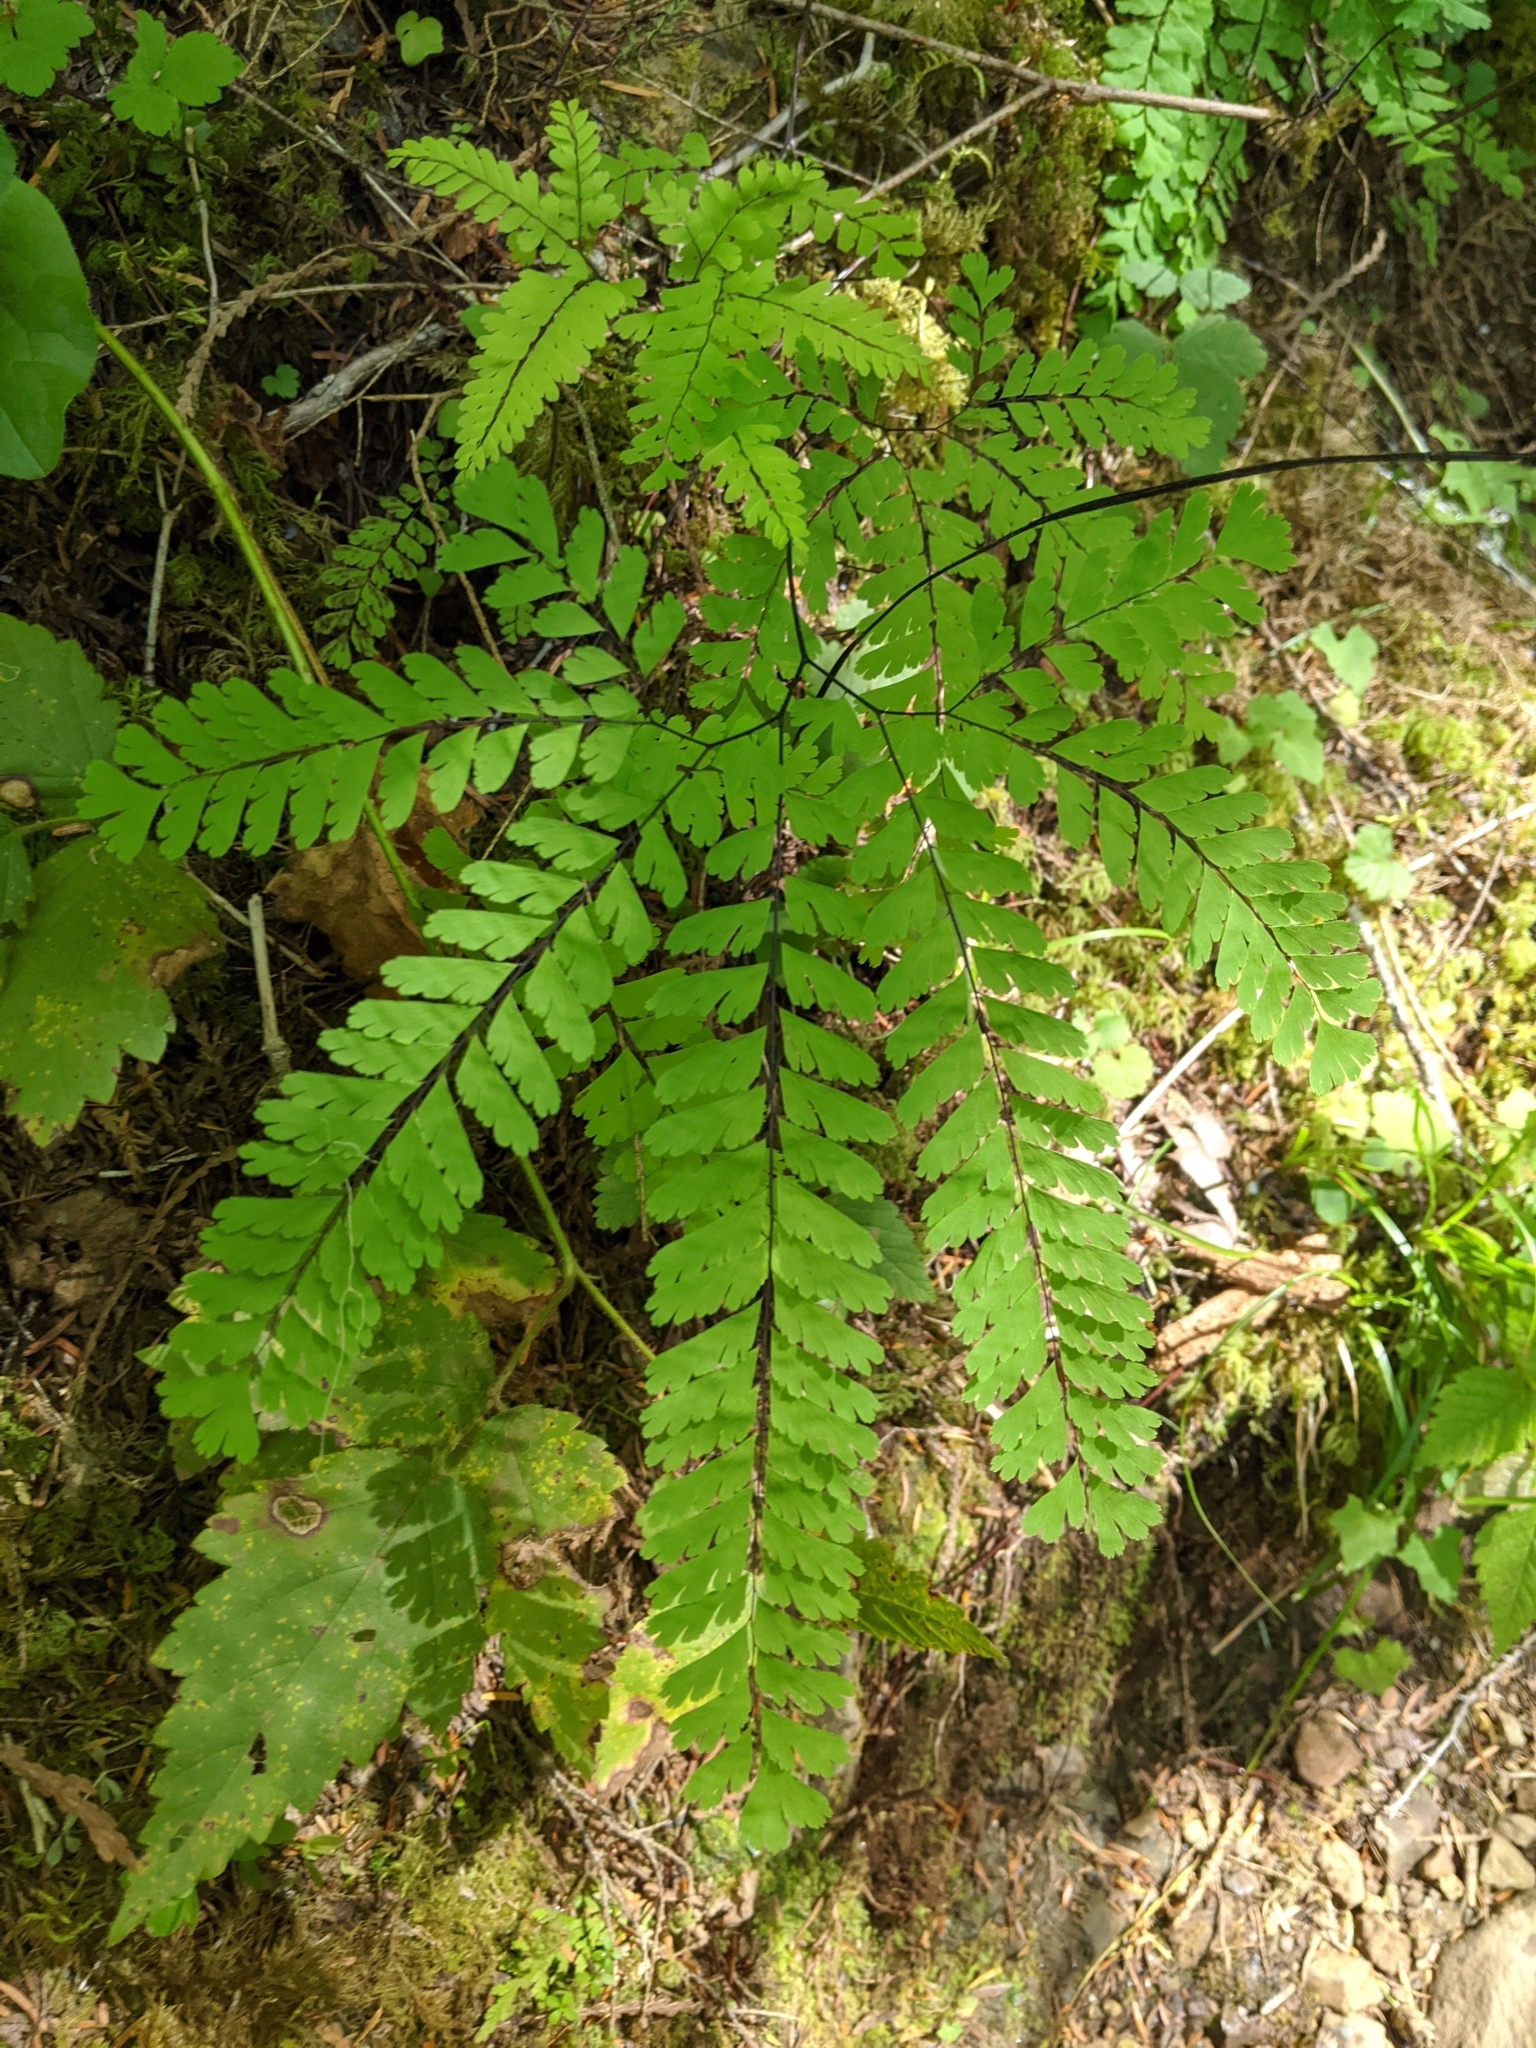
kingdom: Plantae
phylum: Tracheophyta
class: Polypodiopsida
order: Polypodiales
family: Pteridaceae
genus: Adiantum
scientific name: Adiantum aleuticum
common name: Aleutian maidenhair fern
